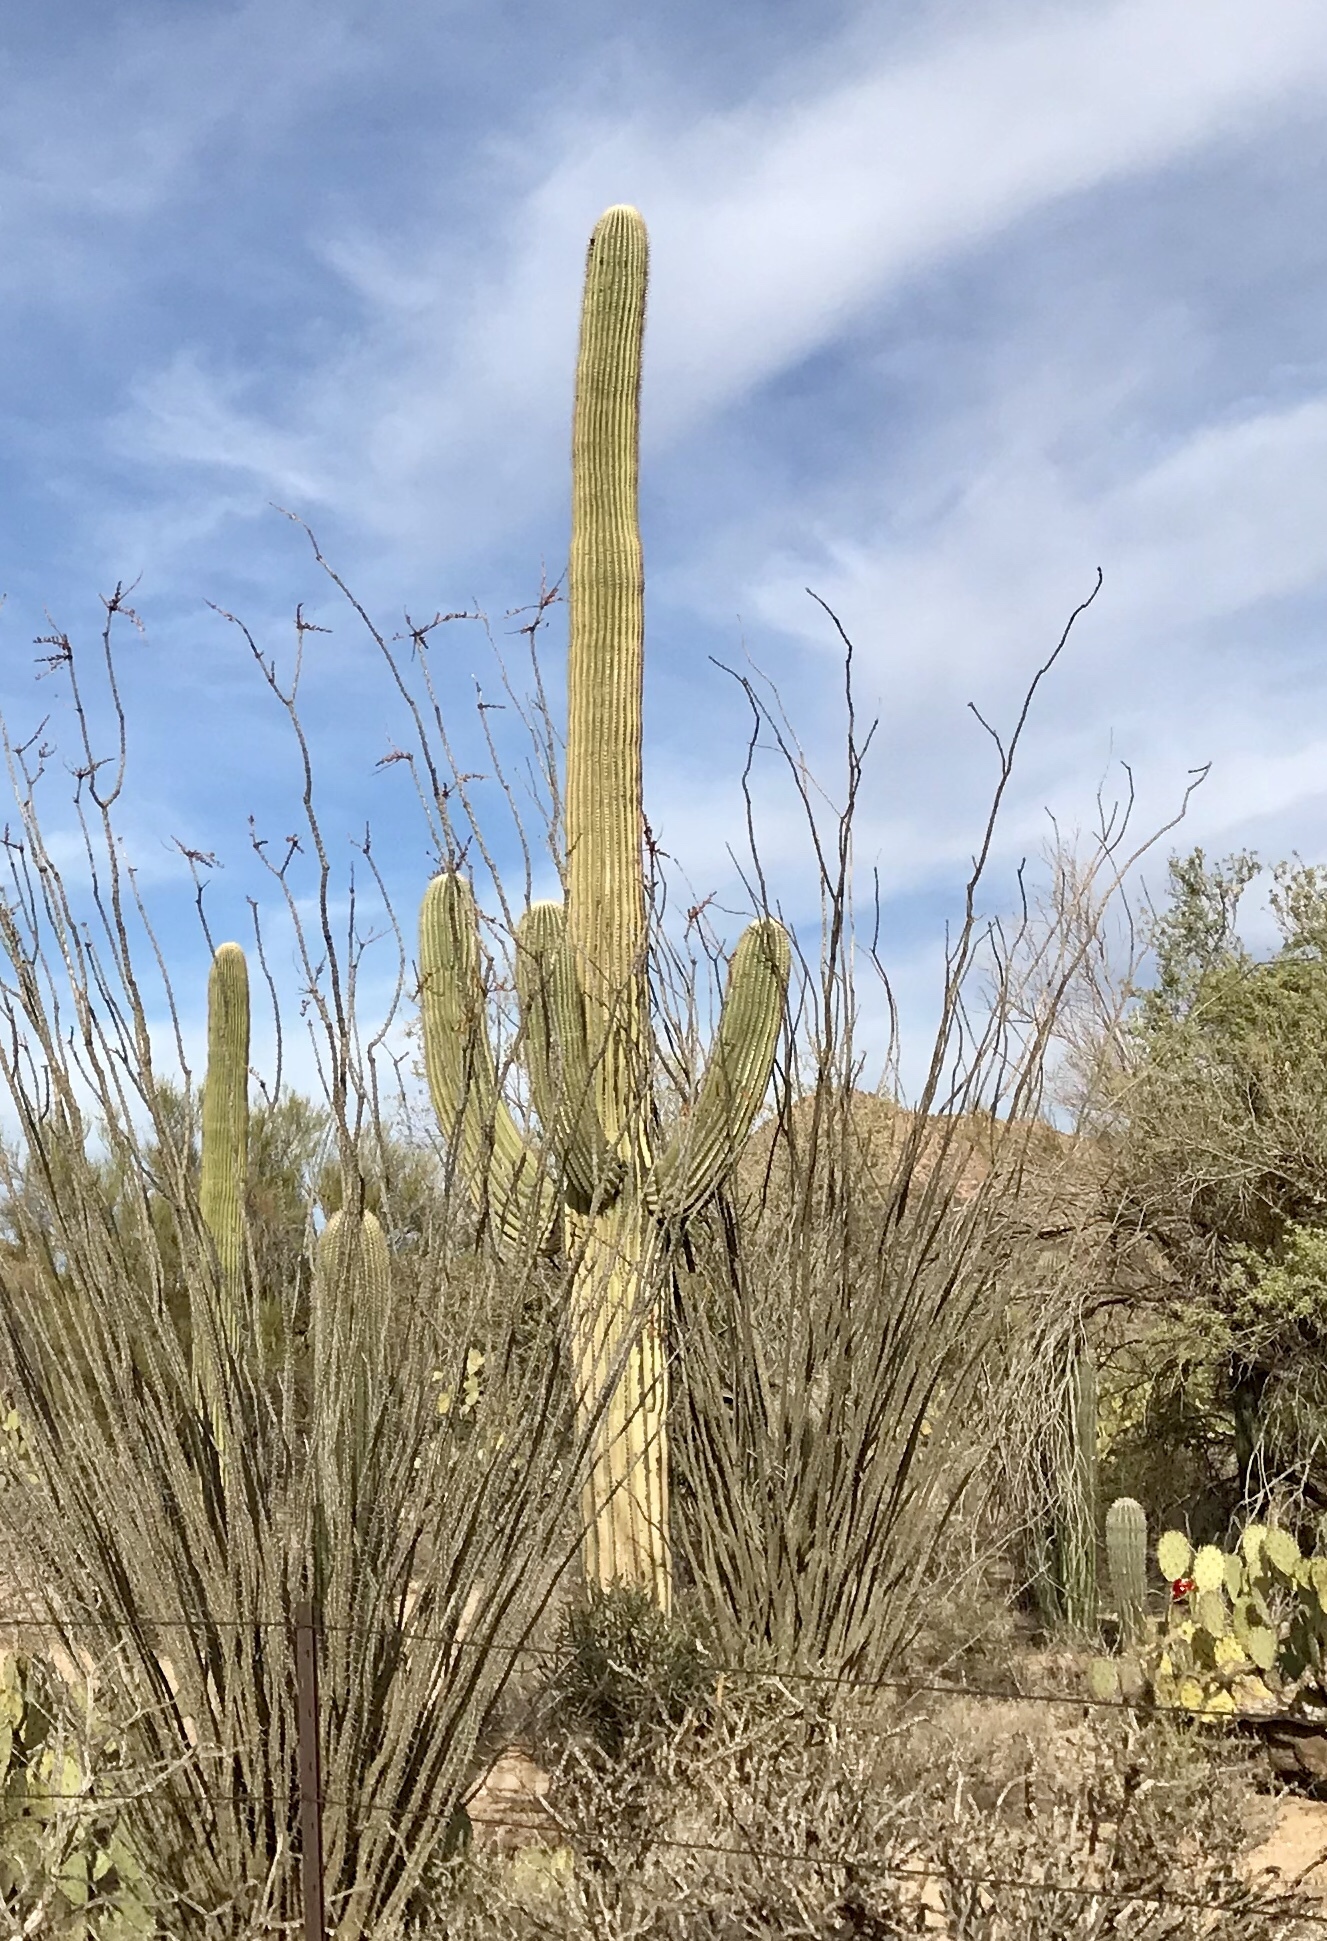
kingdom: Plantae
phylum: Tracheophyta
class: Magnoliopsida
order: Caryophyllales
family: Cactaceae
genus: Carnegiea
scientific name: Carnegiea gigantea
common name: Saguaro
